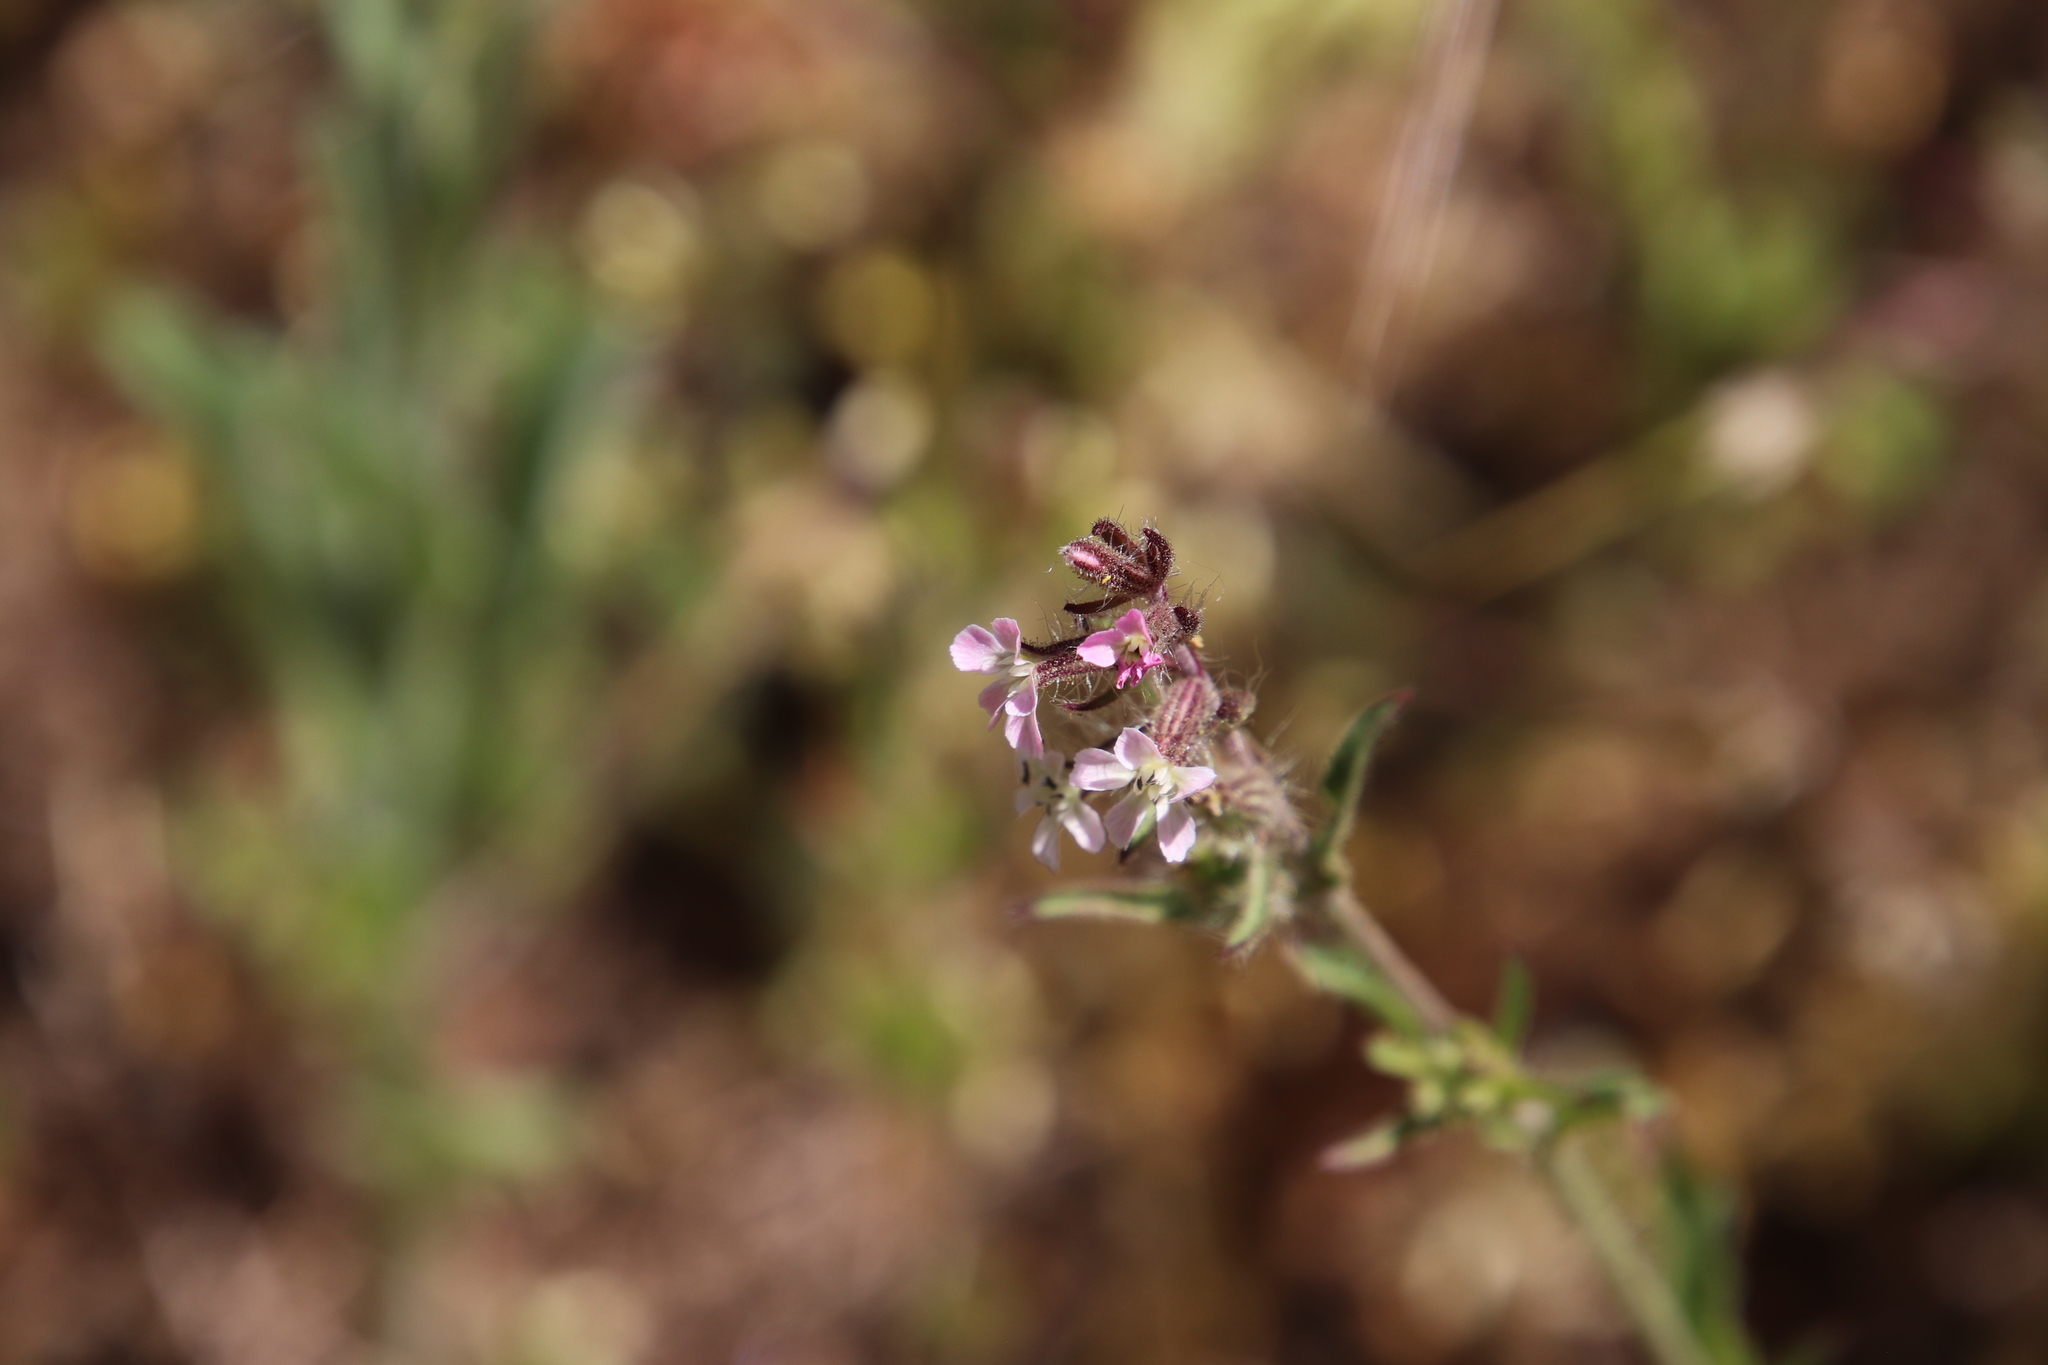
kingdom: Plantae
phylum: Tracheophyta
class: Magnoliopsida
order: Caryophyllales
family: Caryophyllaceae
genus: Silene
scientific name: Silene gallica
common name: Small-flowered catchfly
